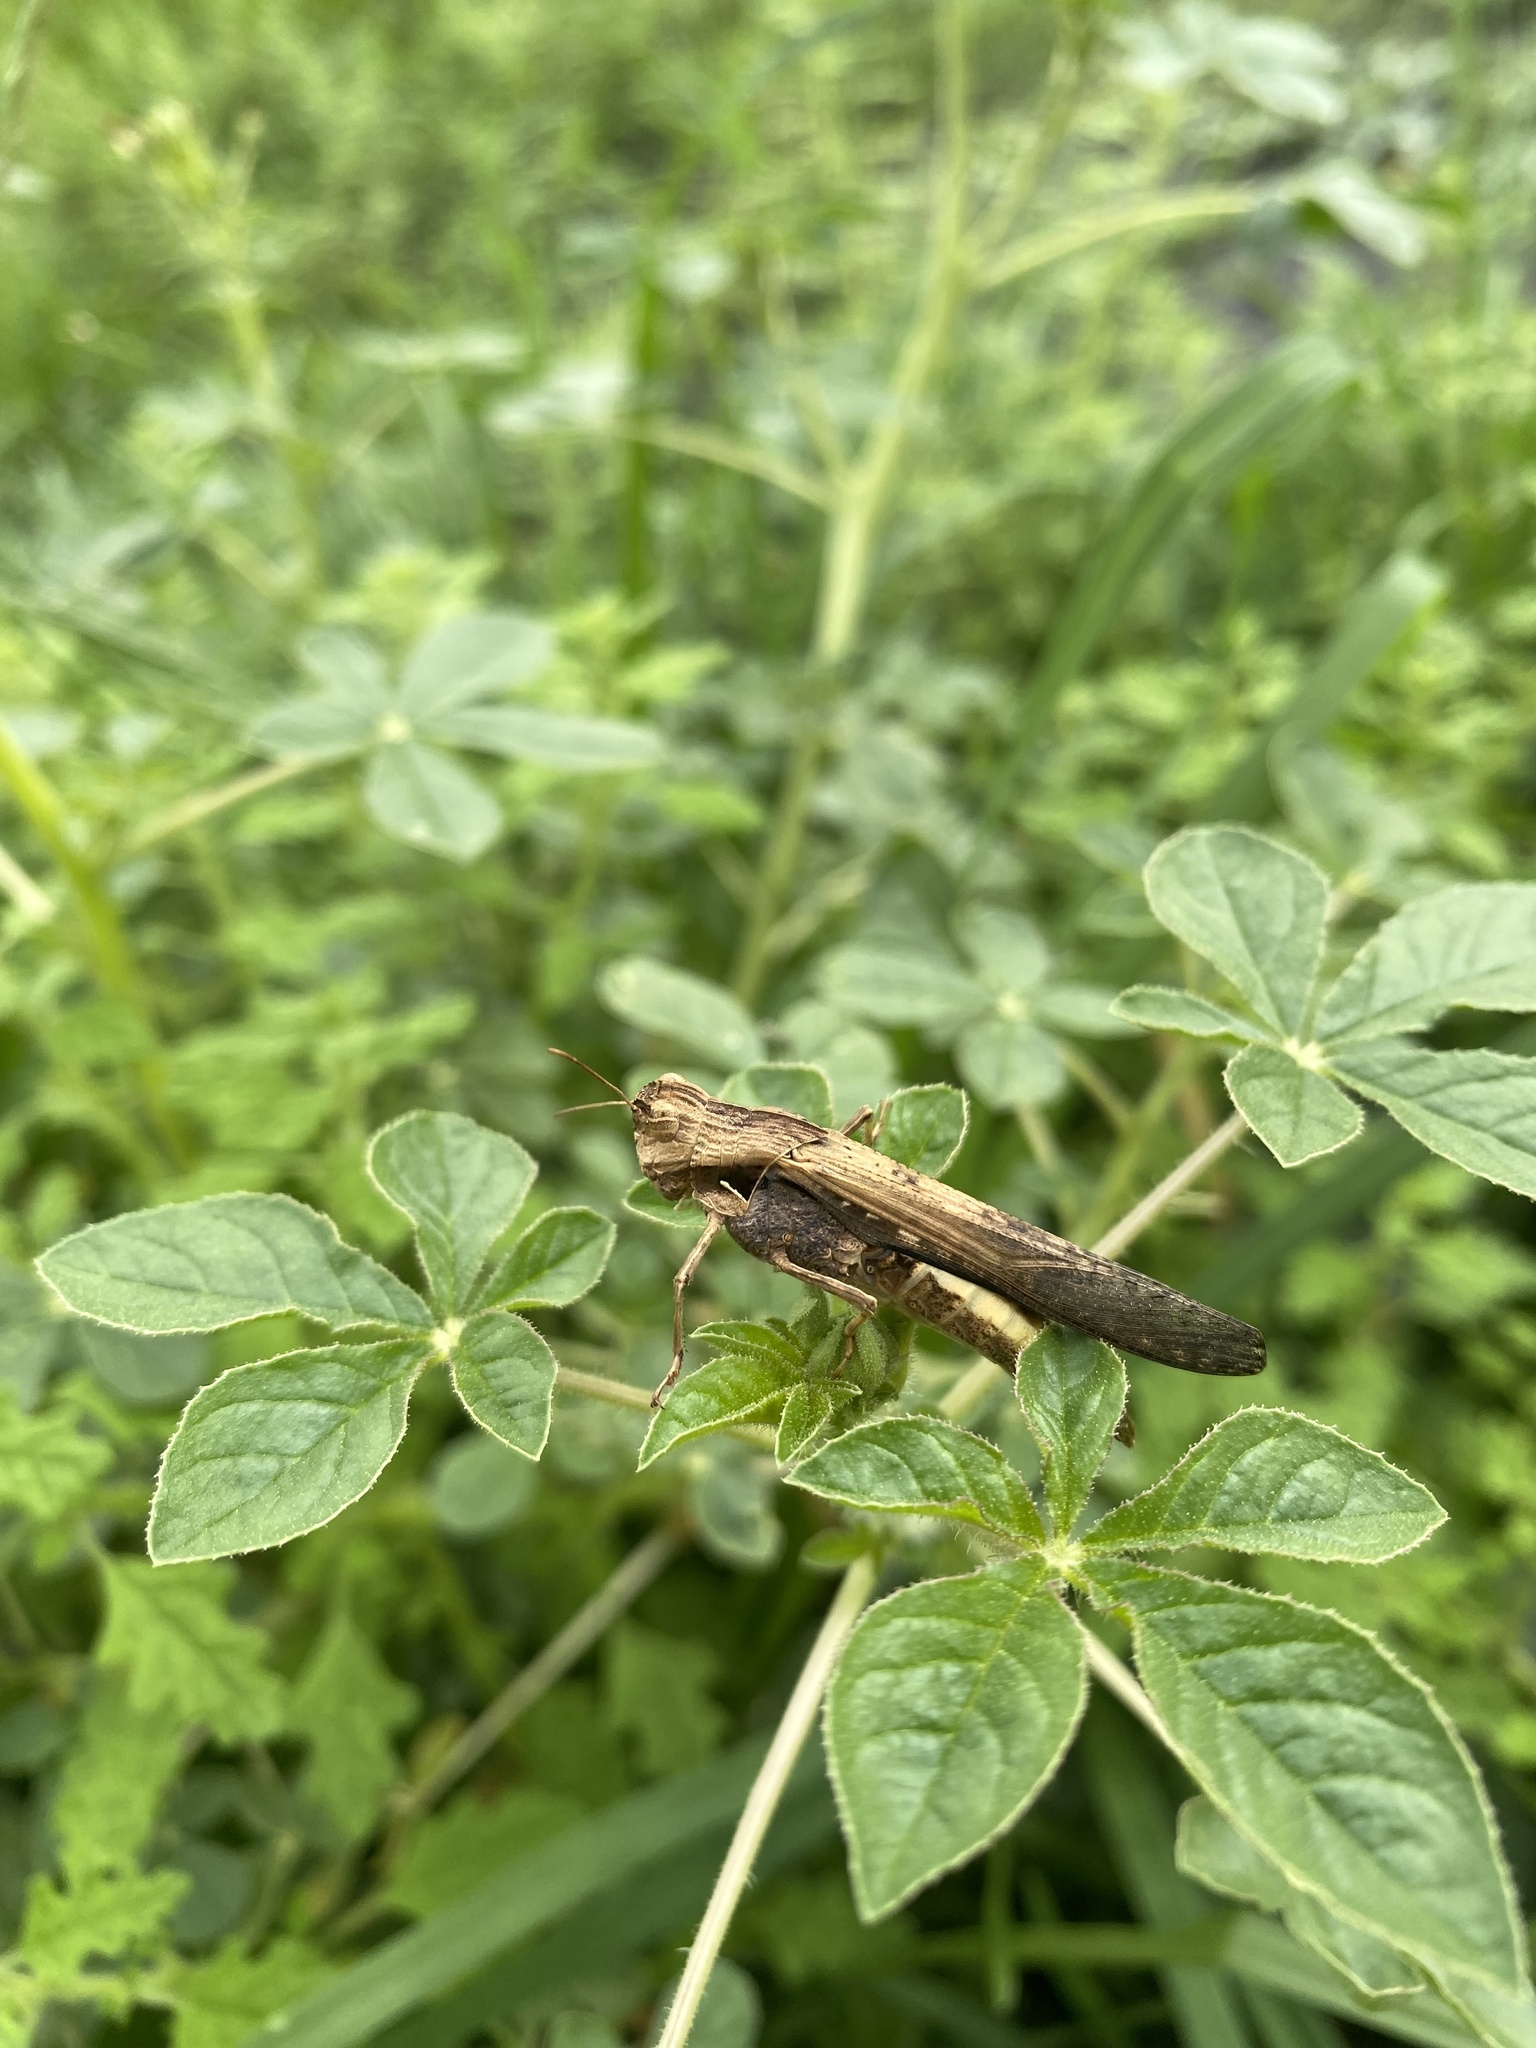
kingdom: Animalia
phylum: Arthropoda
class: Insecta
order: Orthoptera
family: Acrididae
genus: Morphacris
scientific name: Morphacris fasciata
